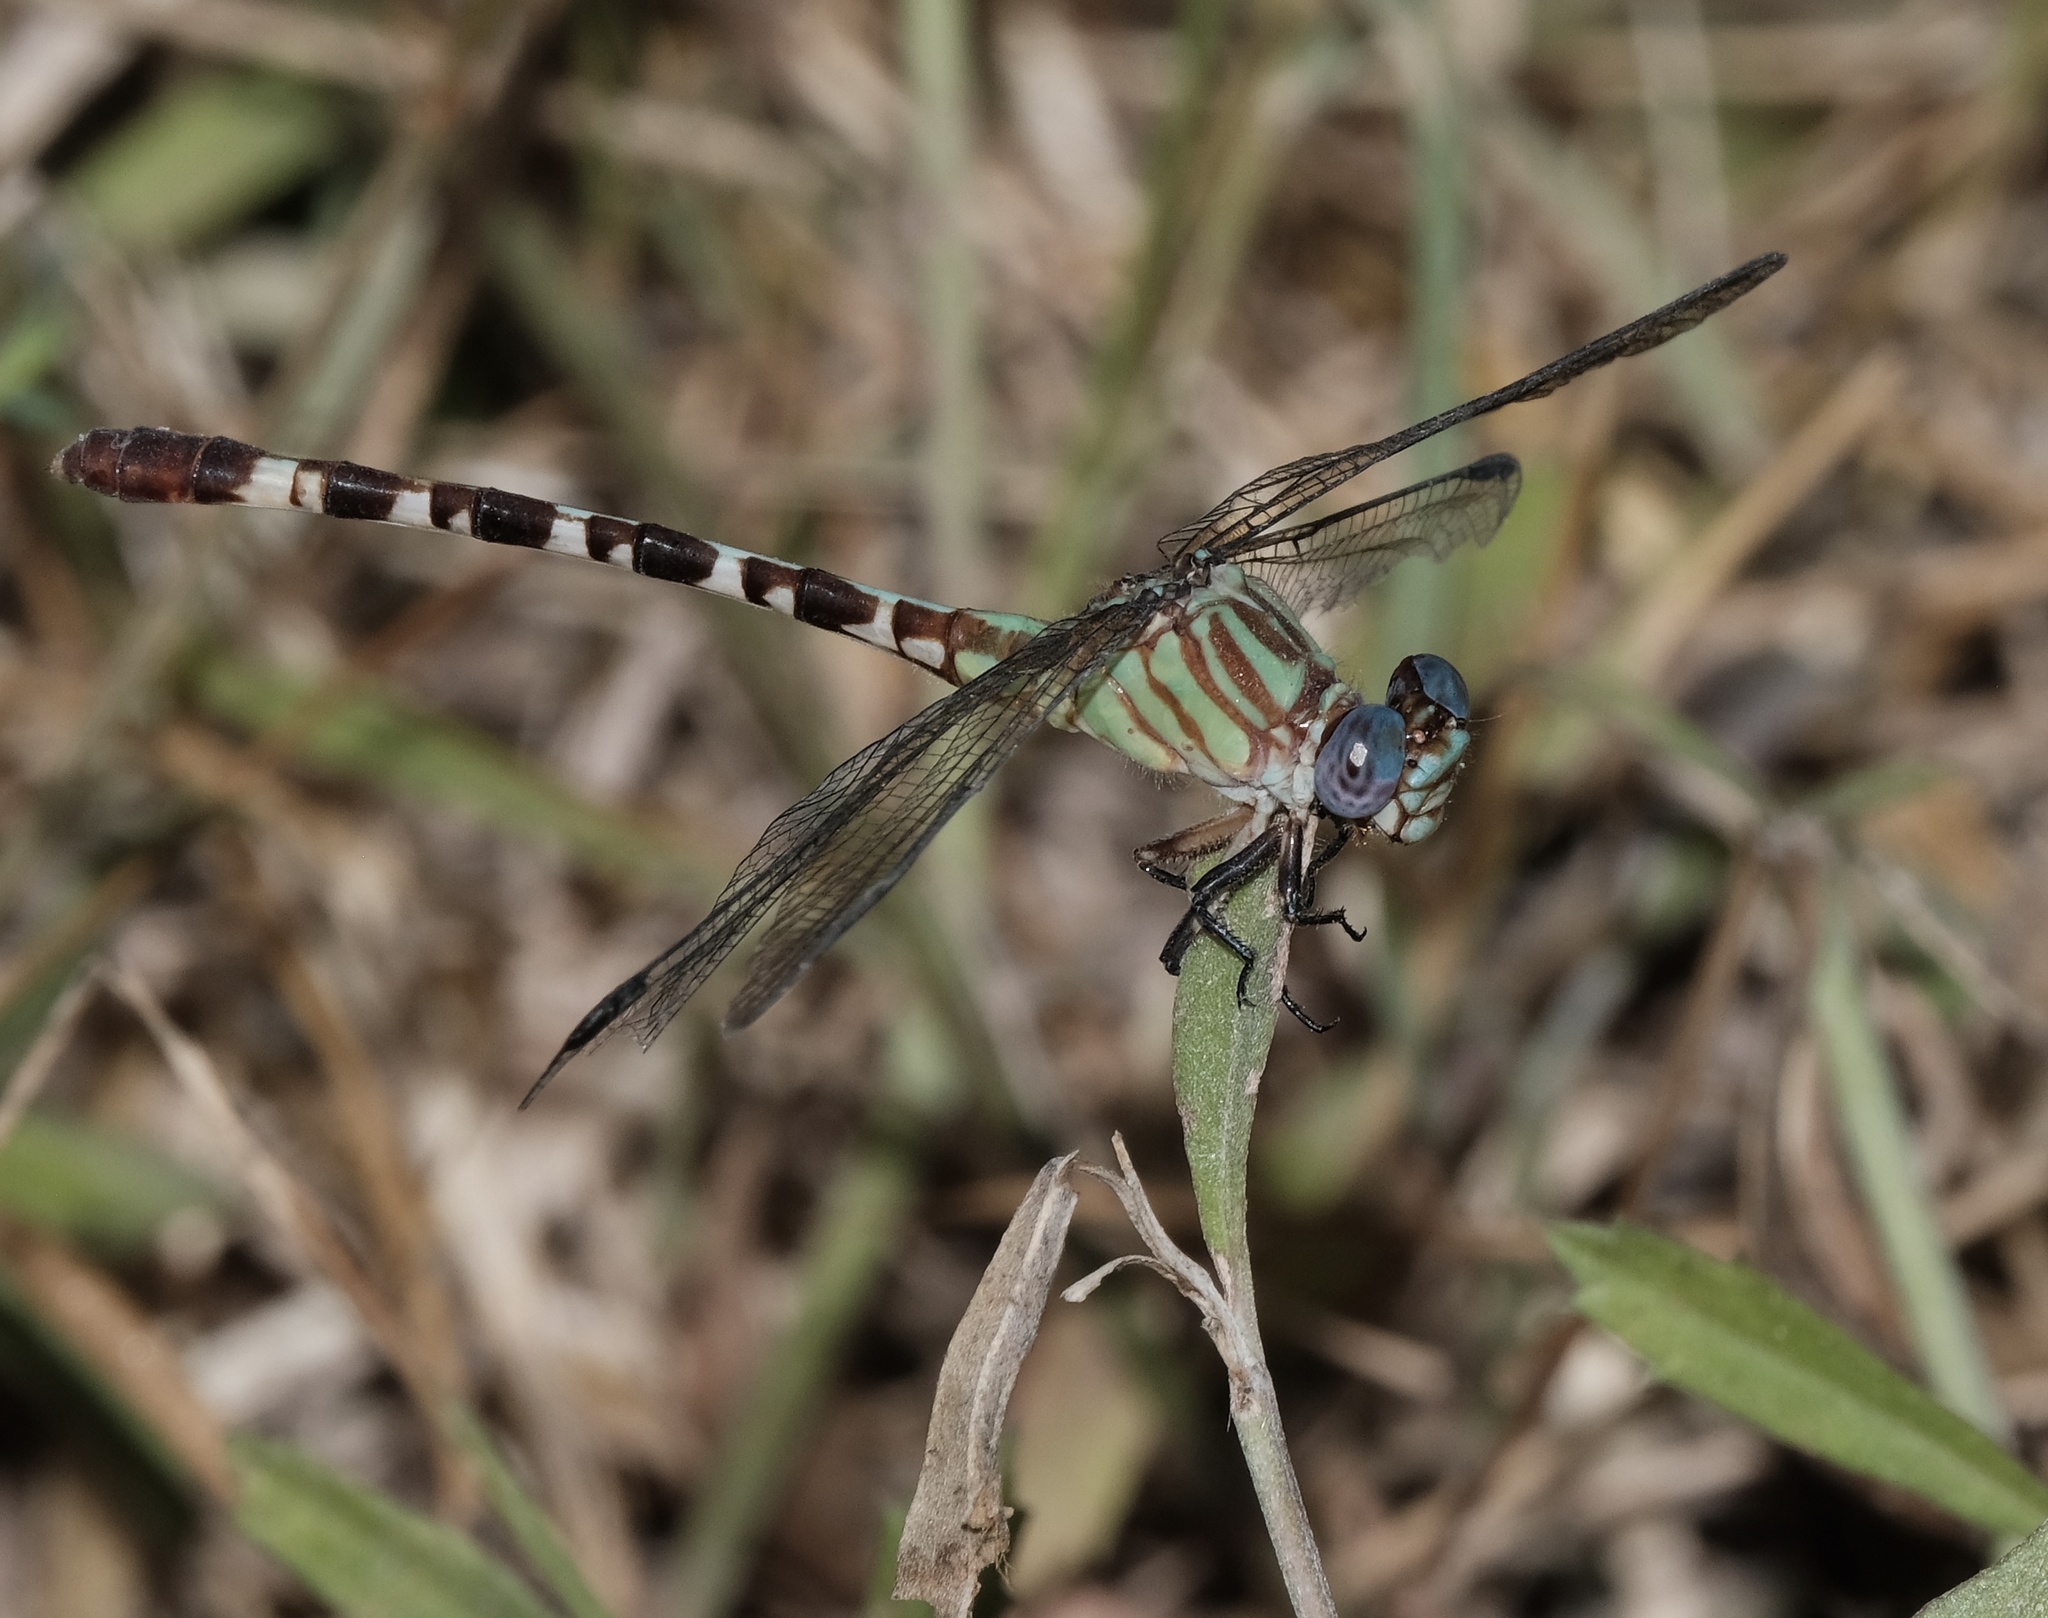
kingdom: Animalia
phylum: Arthropoda
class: Insecta
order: Odonata
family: Gomphidae
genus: Erpetogomphus
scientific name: Erpetogomphus eutainia
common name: Blue-faced ringtail
